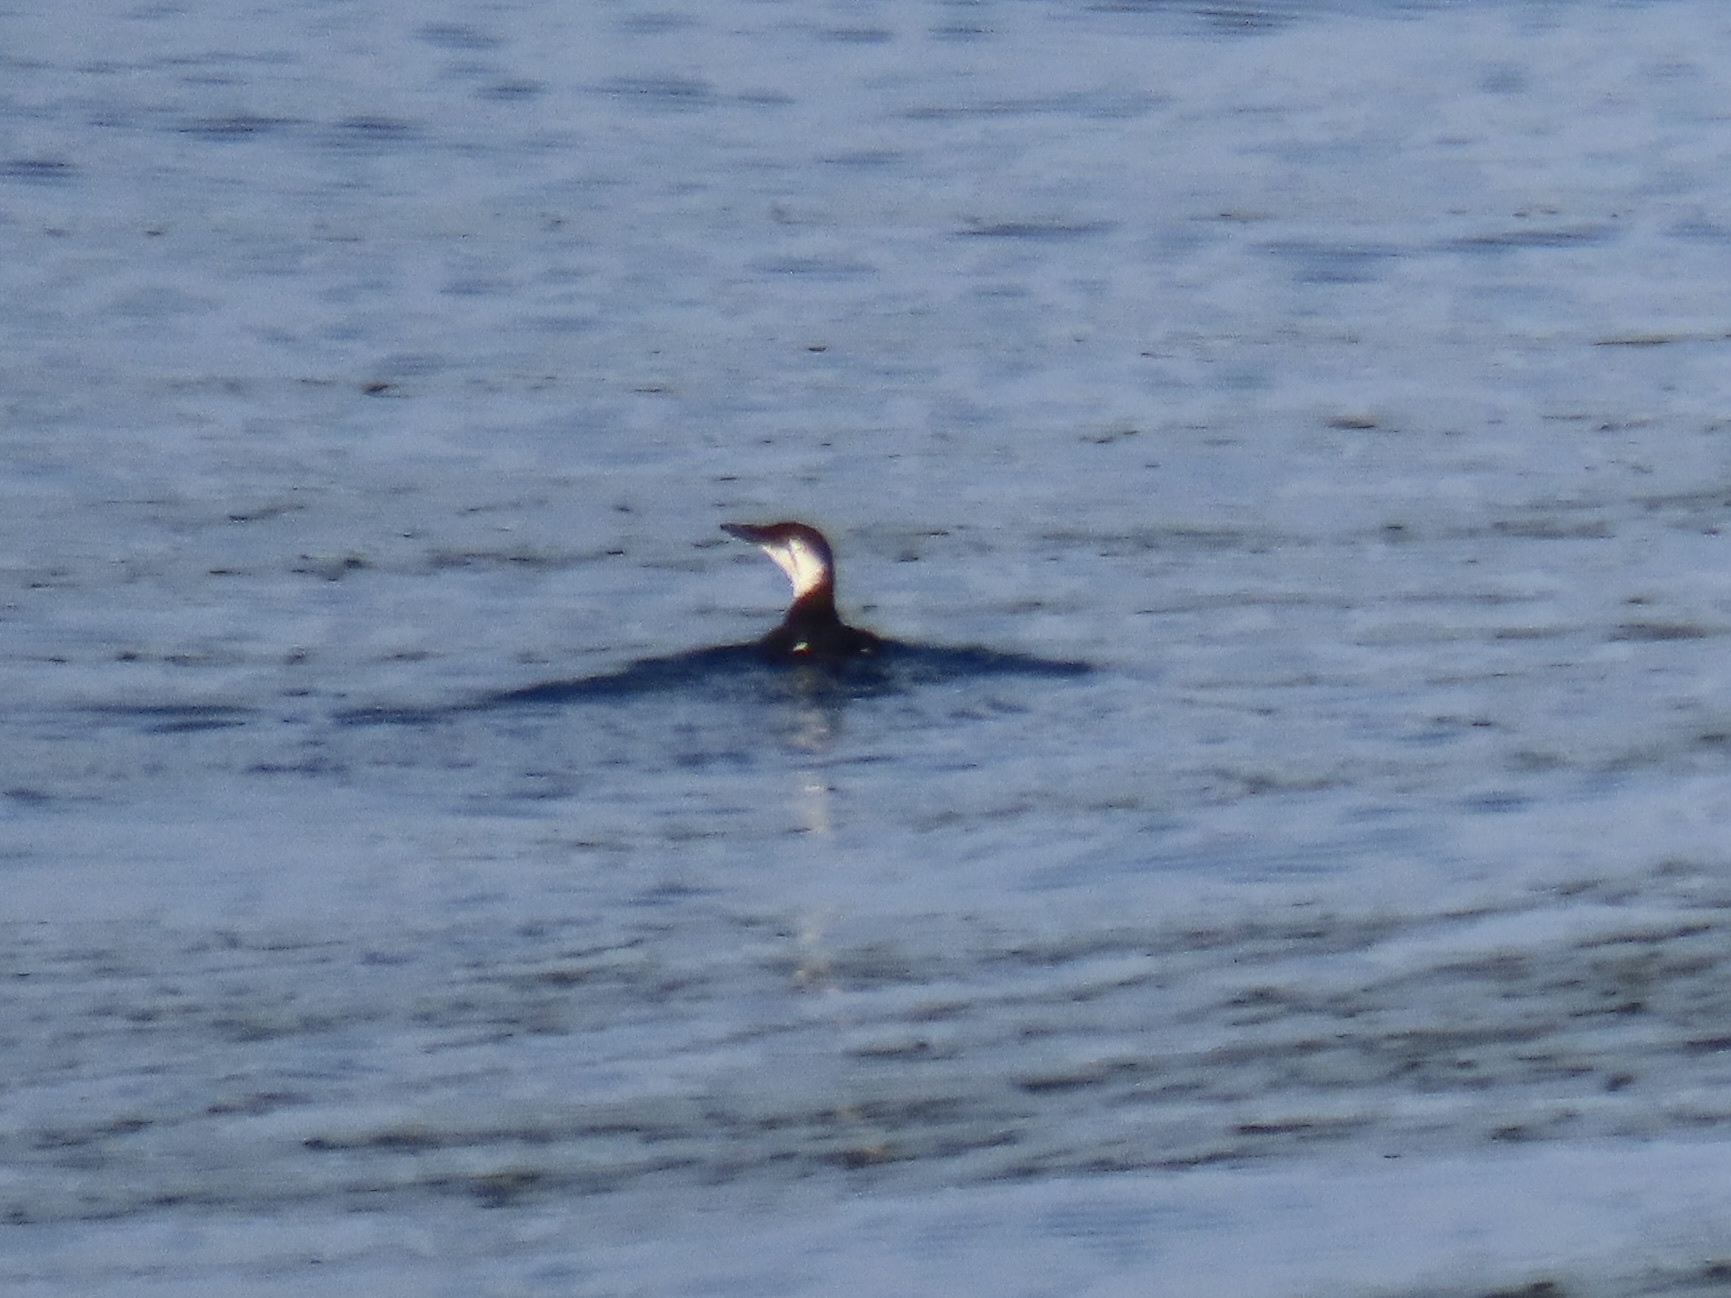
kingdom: Animalia
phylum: Chordata
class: Aves
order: Charadriiformes
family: Alcidae
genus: Uria
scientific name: Uria aalge
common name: Common murre
